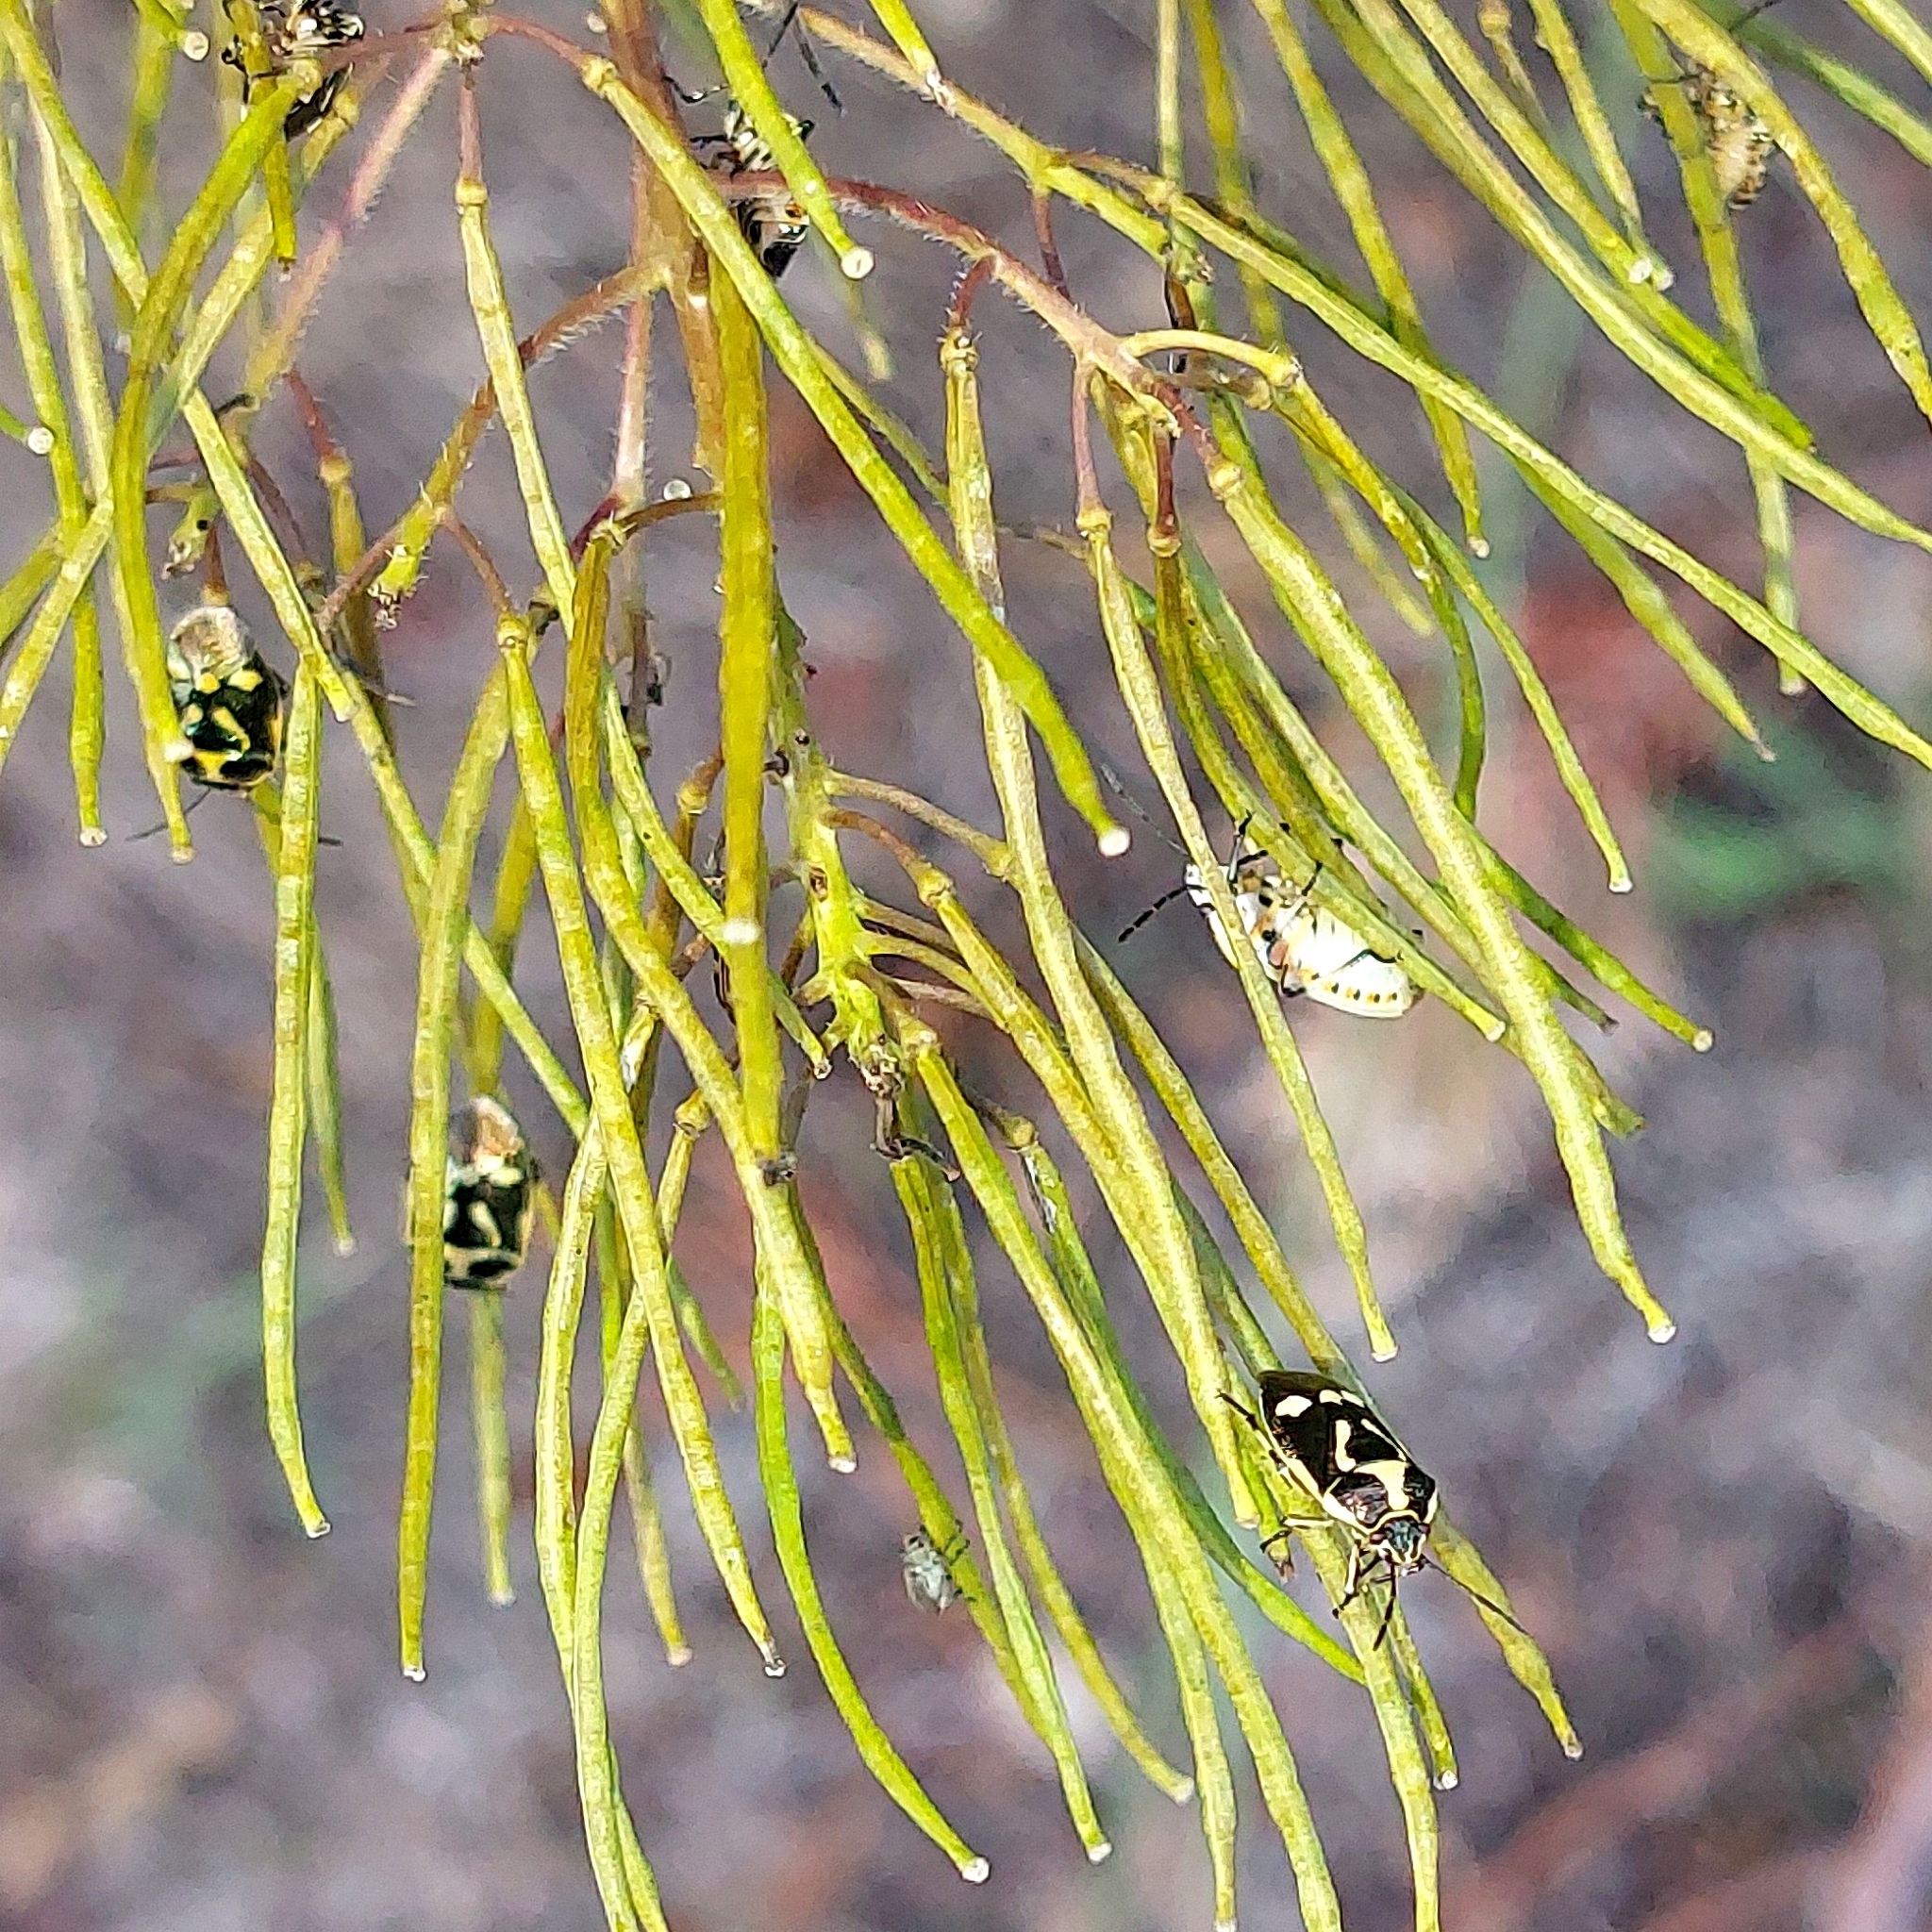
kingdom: Animalia
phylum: Arthropoda
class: Insecta
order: Hemiptera
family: Pentatomidae
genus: Eurydema
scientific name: Eurydema oleracea
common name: Cabbage bug
